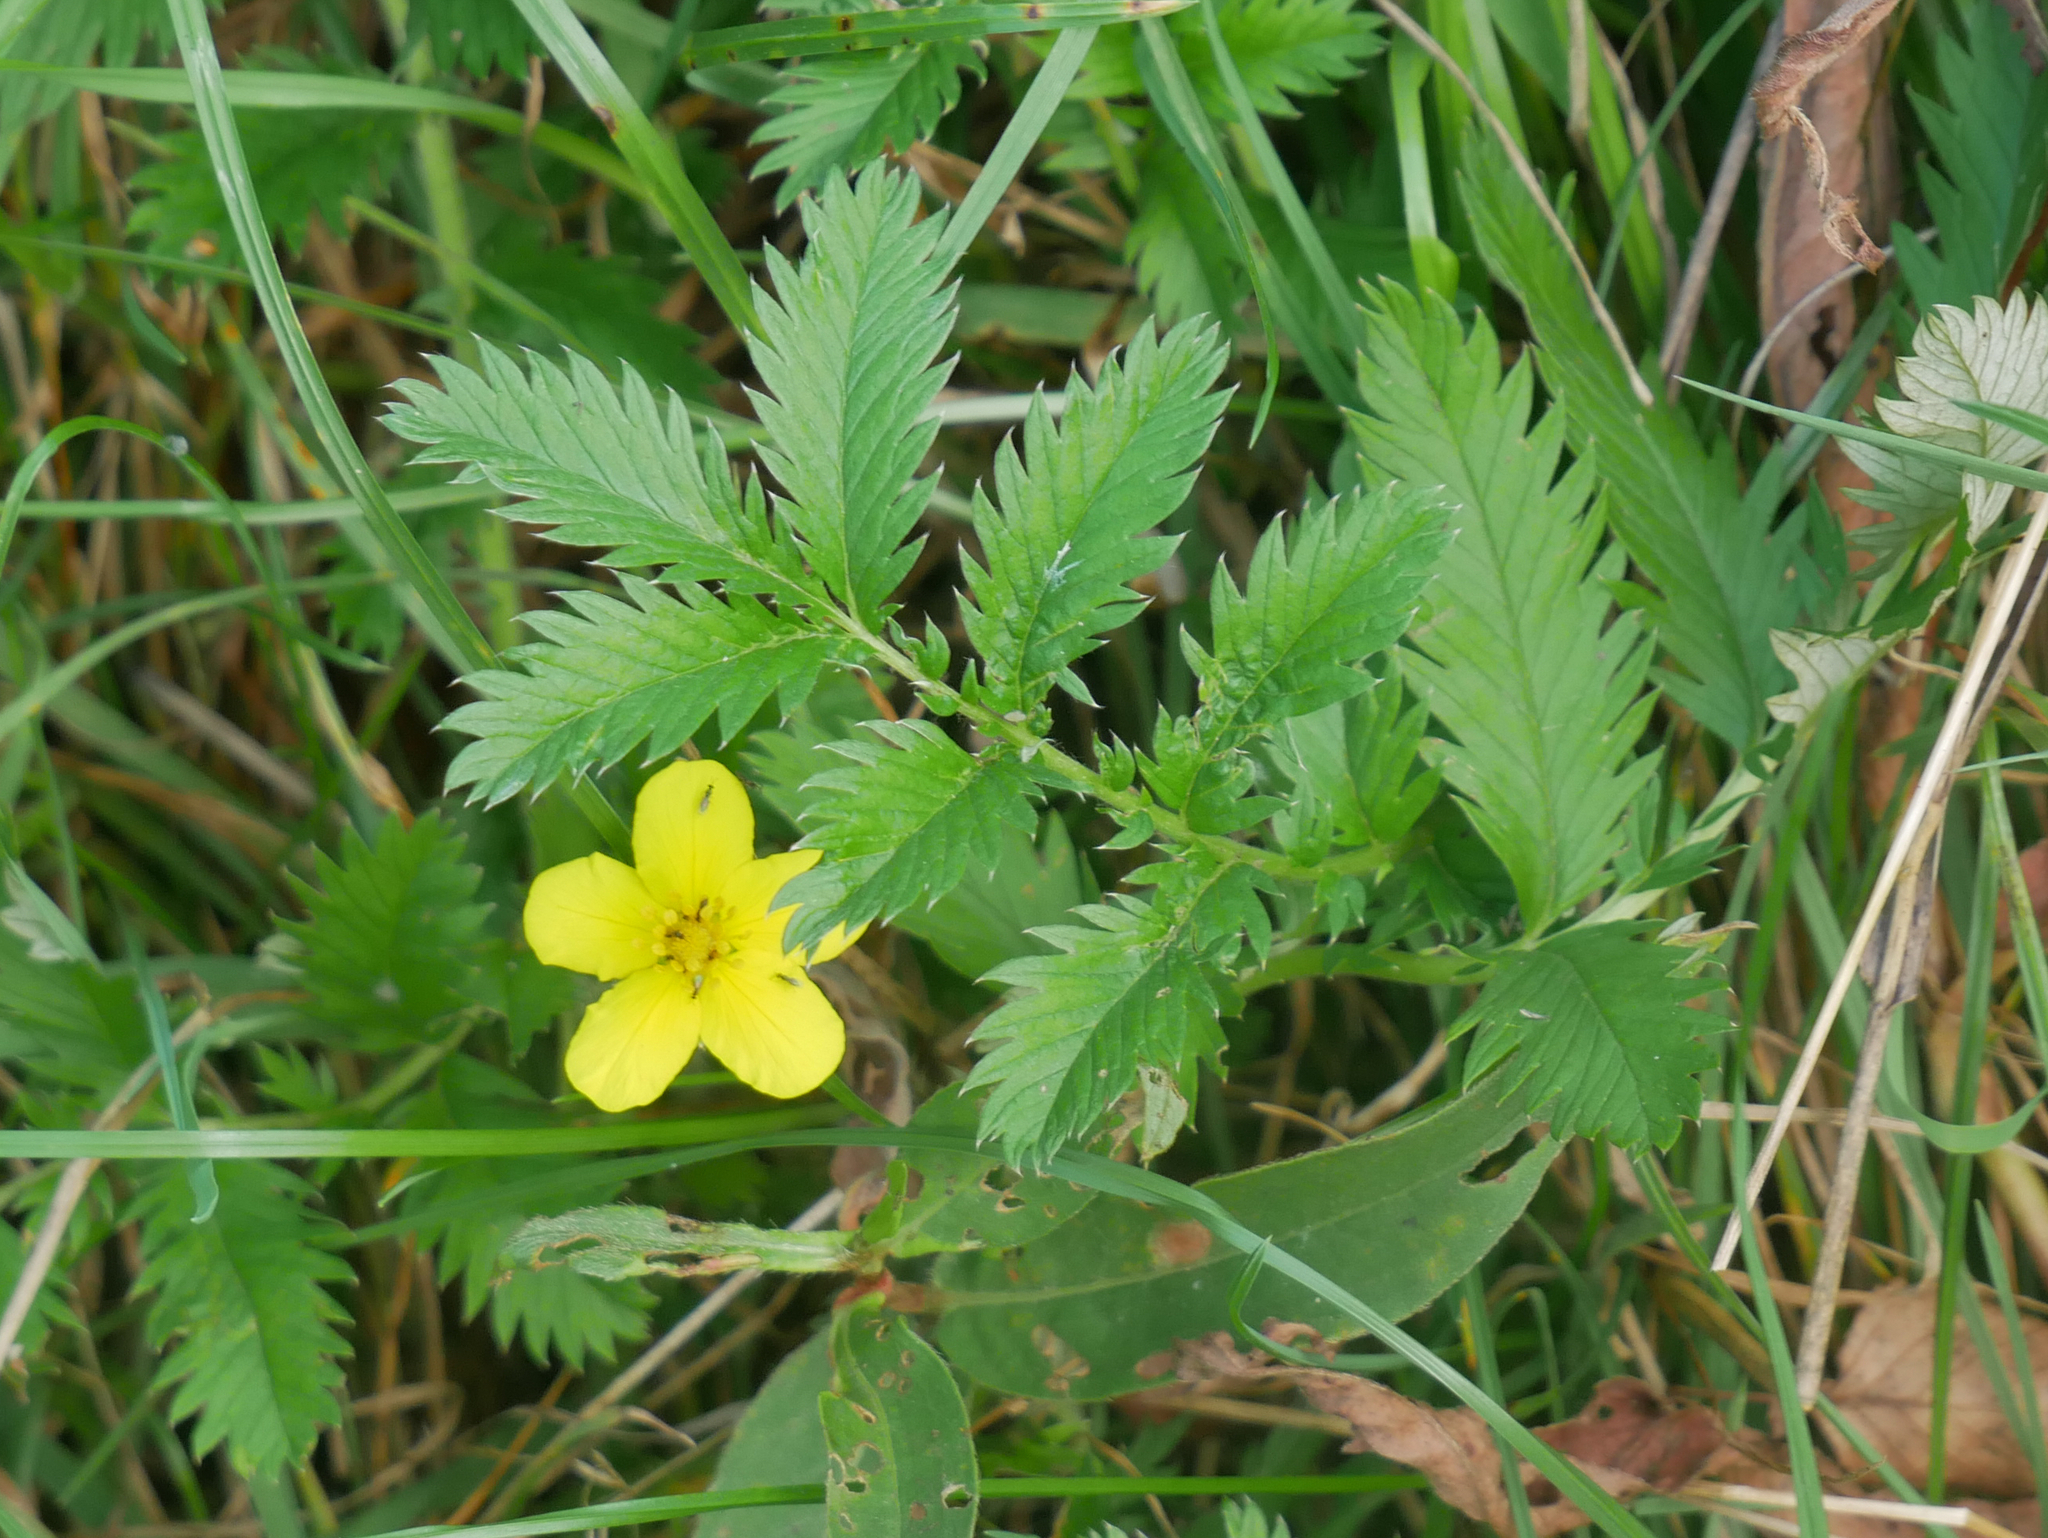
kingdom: Plantae
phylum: Tracheophyta
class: Magnoliopsida
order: Rosales
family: Rosaceae
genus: Argentina
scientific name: Argentina anserina
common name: Common silverweed
